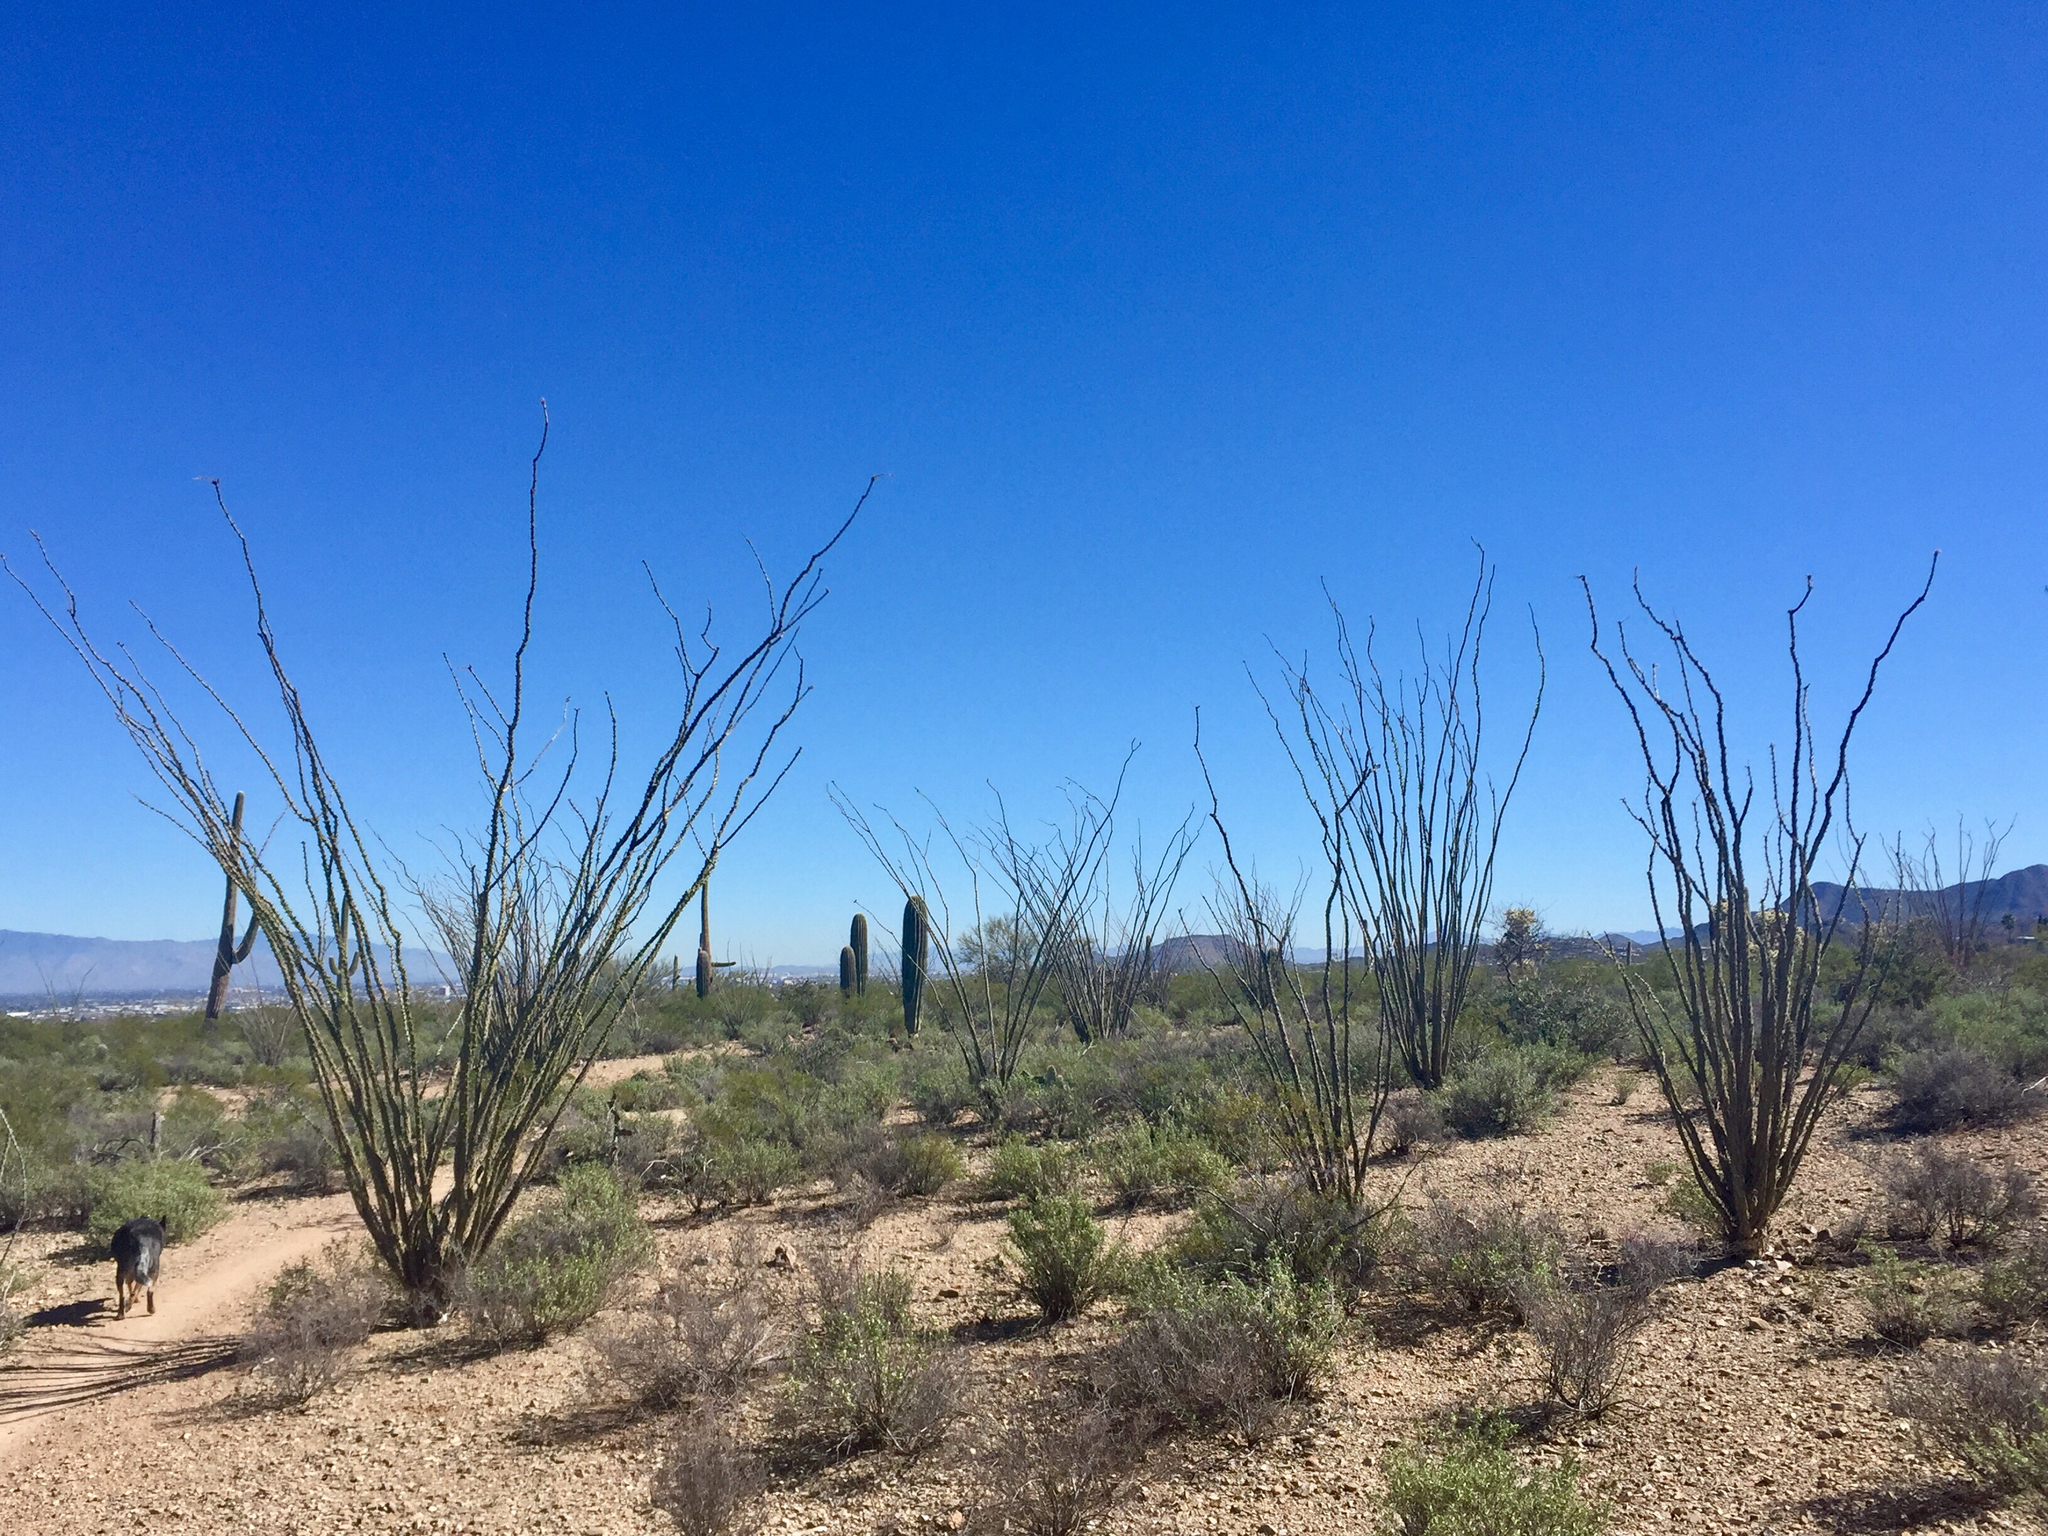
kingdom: Plantae
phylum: Tracheophyta
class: Magnoliopsida
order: Ericales
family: Fouquieriaceae
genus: Fouquieria
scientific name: Fouquieria splendens
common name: Vine-cactus
